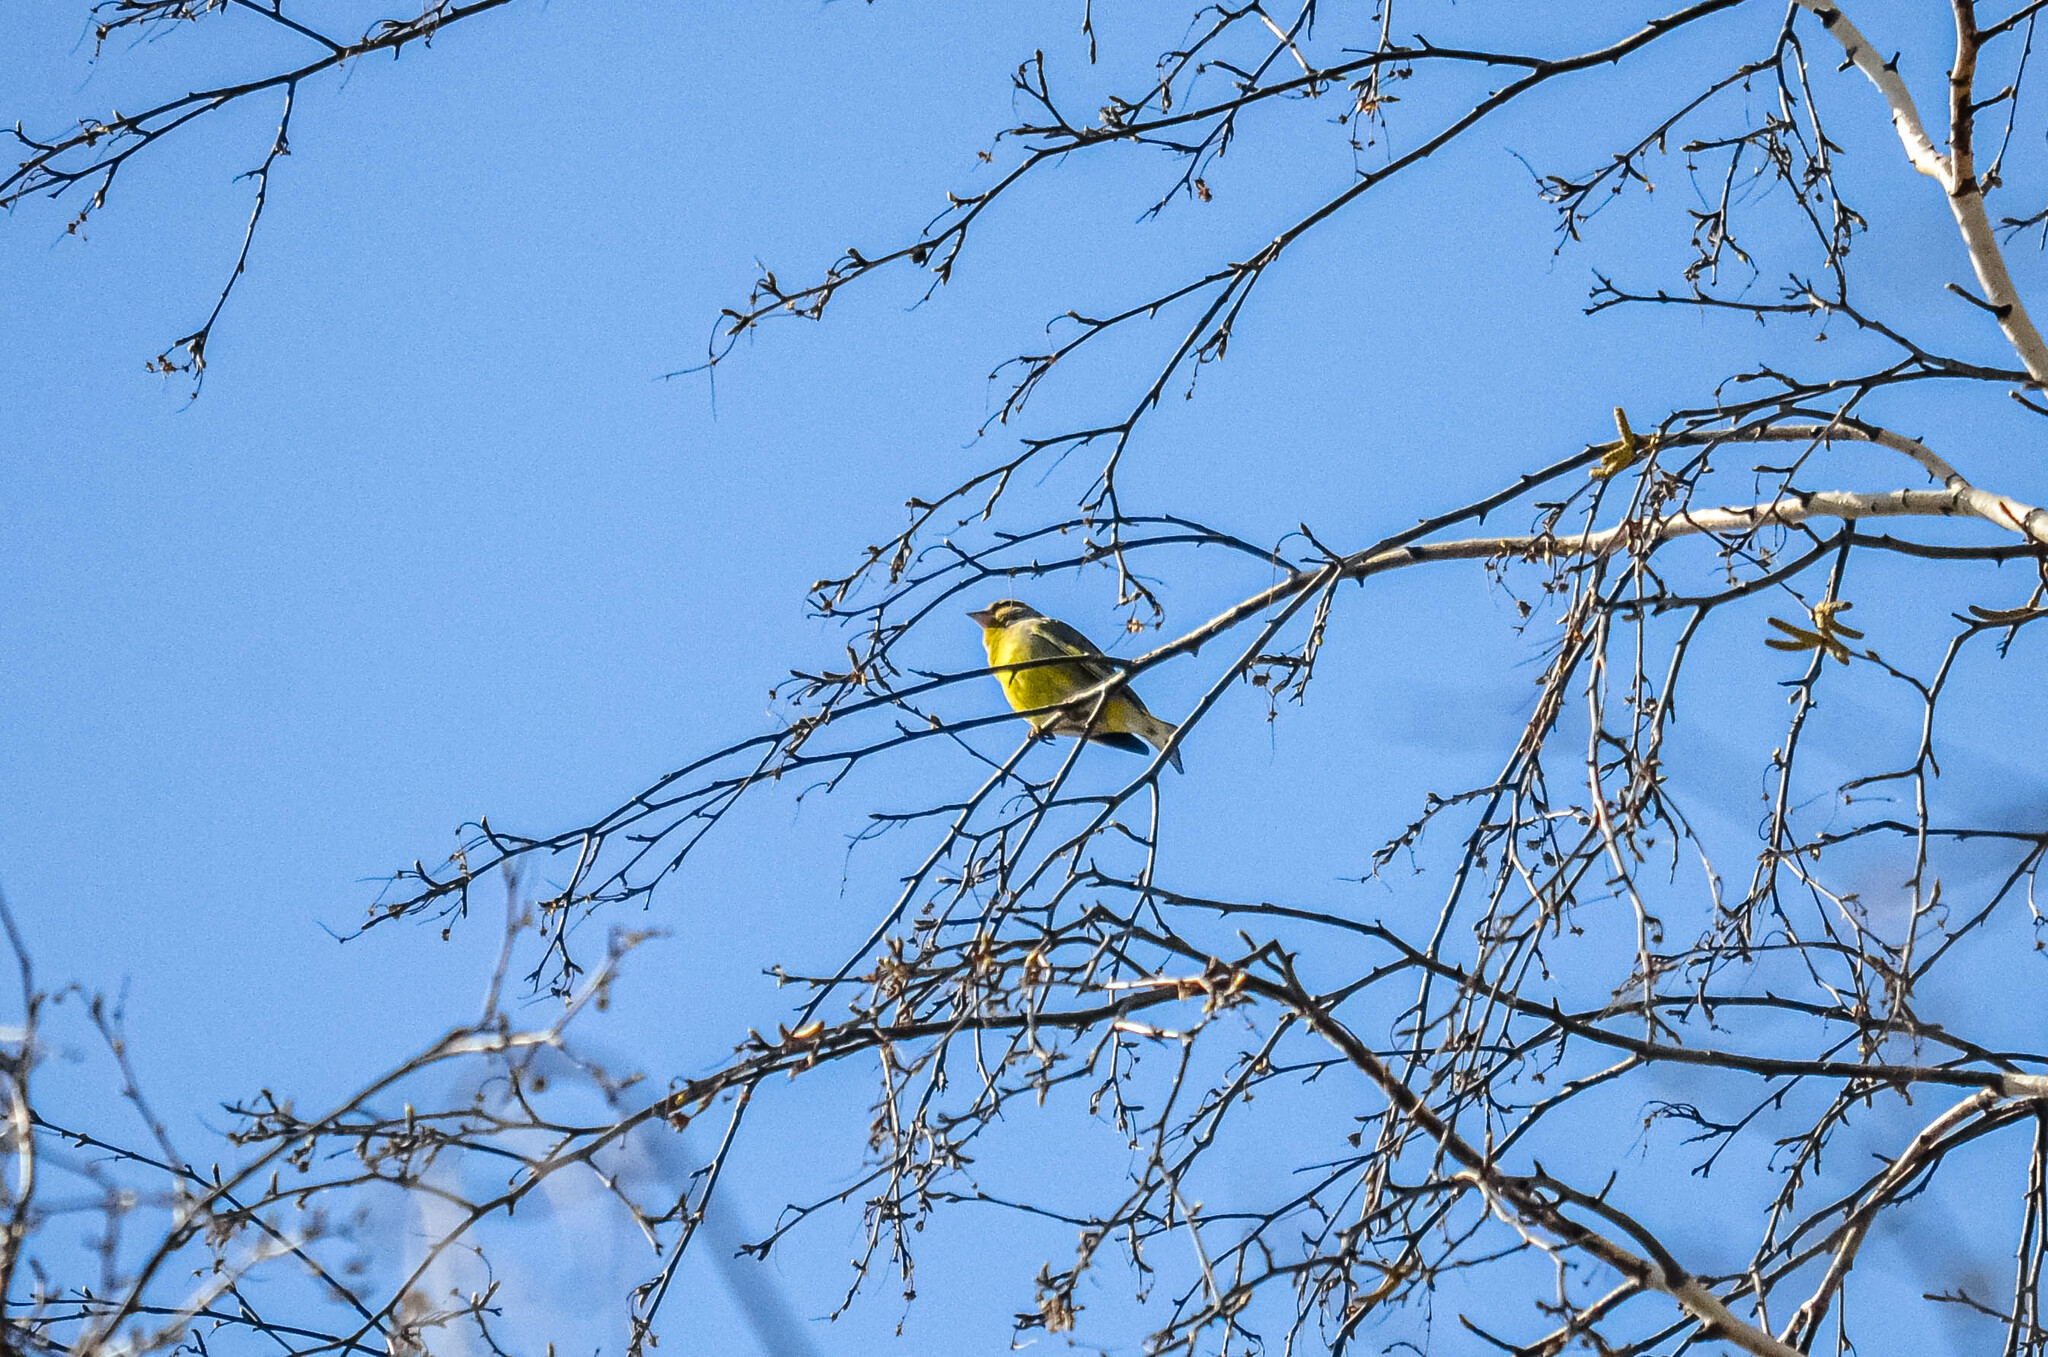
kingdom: Plantae
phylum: Tracheophyta
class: Liliopsida
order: Poales
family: Poaceae
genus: Chloris
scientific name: Chloris chloris
